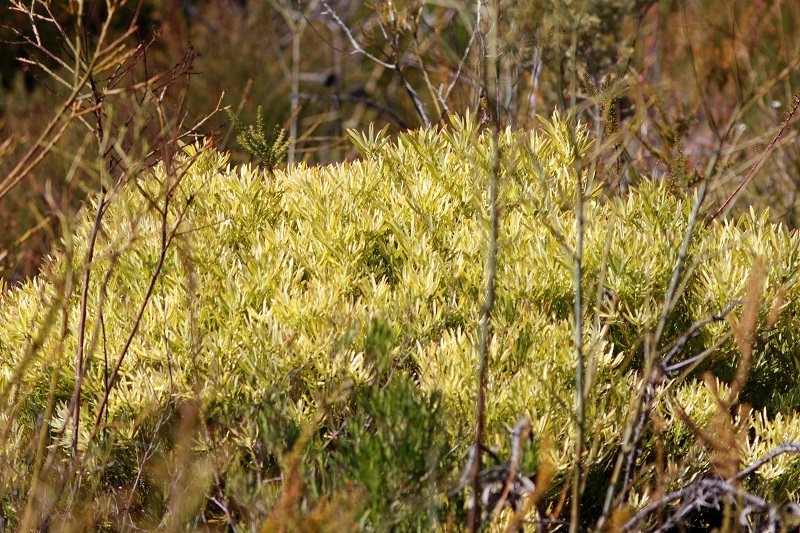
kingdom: Plantae
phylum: Tracheophyta
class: Magnoliopsida
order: Proteales
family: Proteaceae
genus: Leucadendron
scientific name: Leucadendron salignum
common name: Common sunshine conebush
